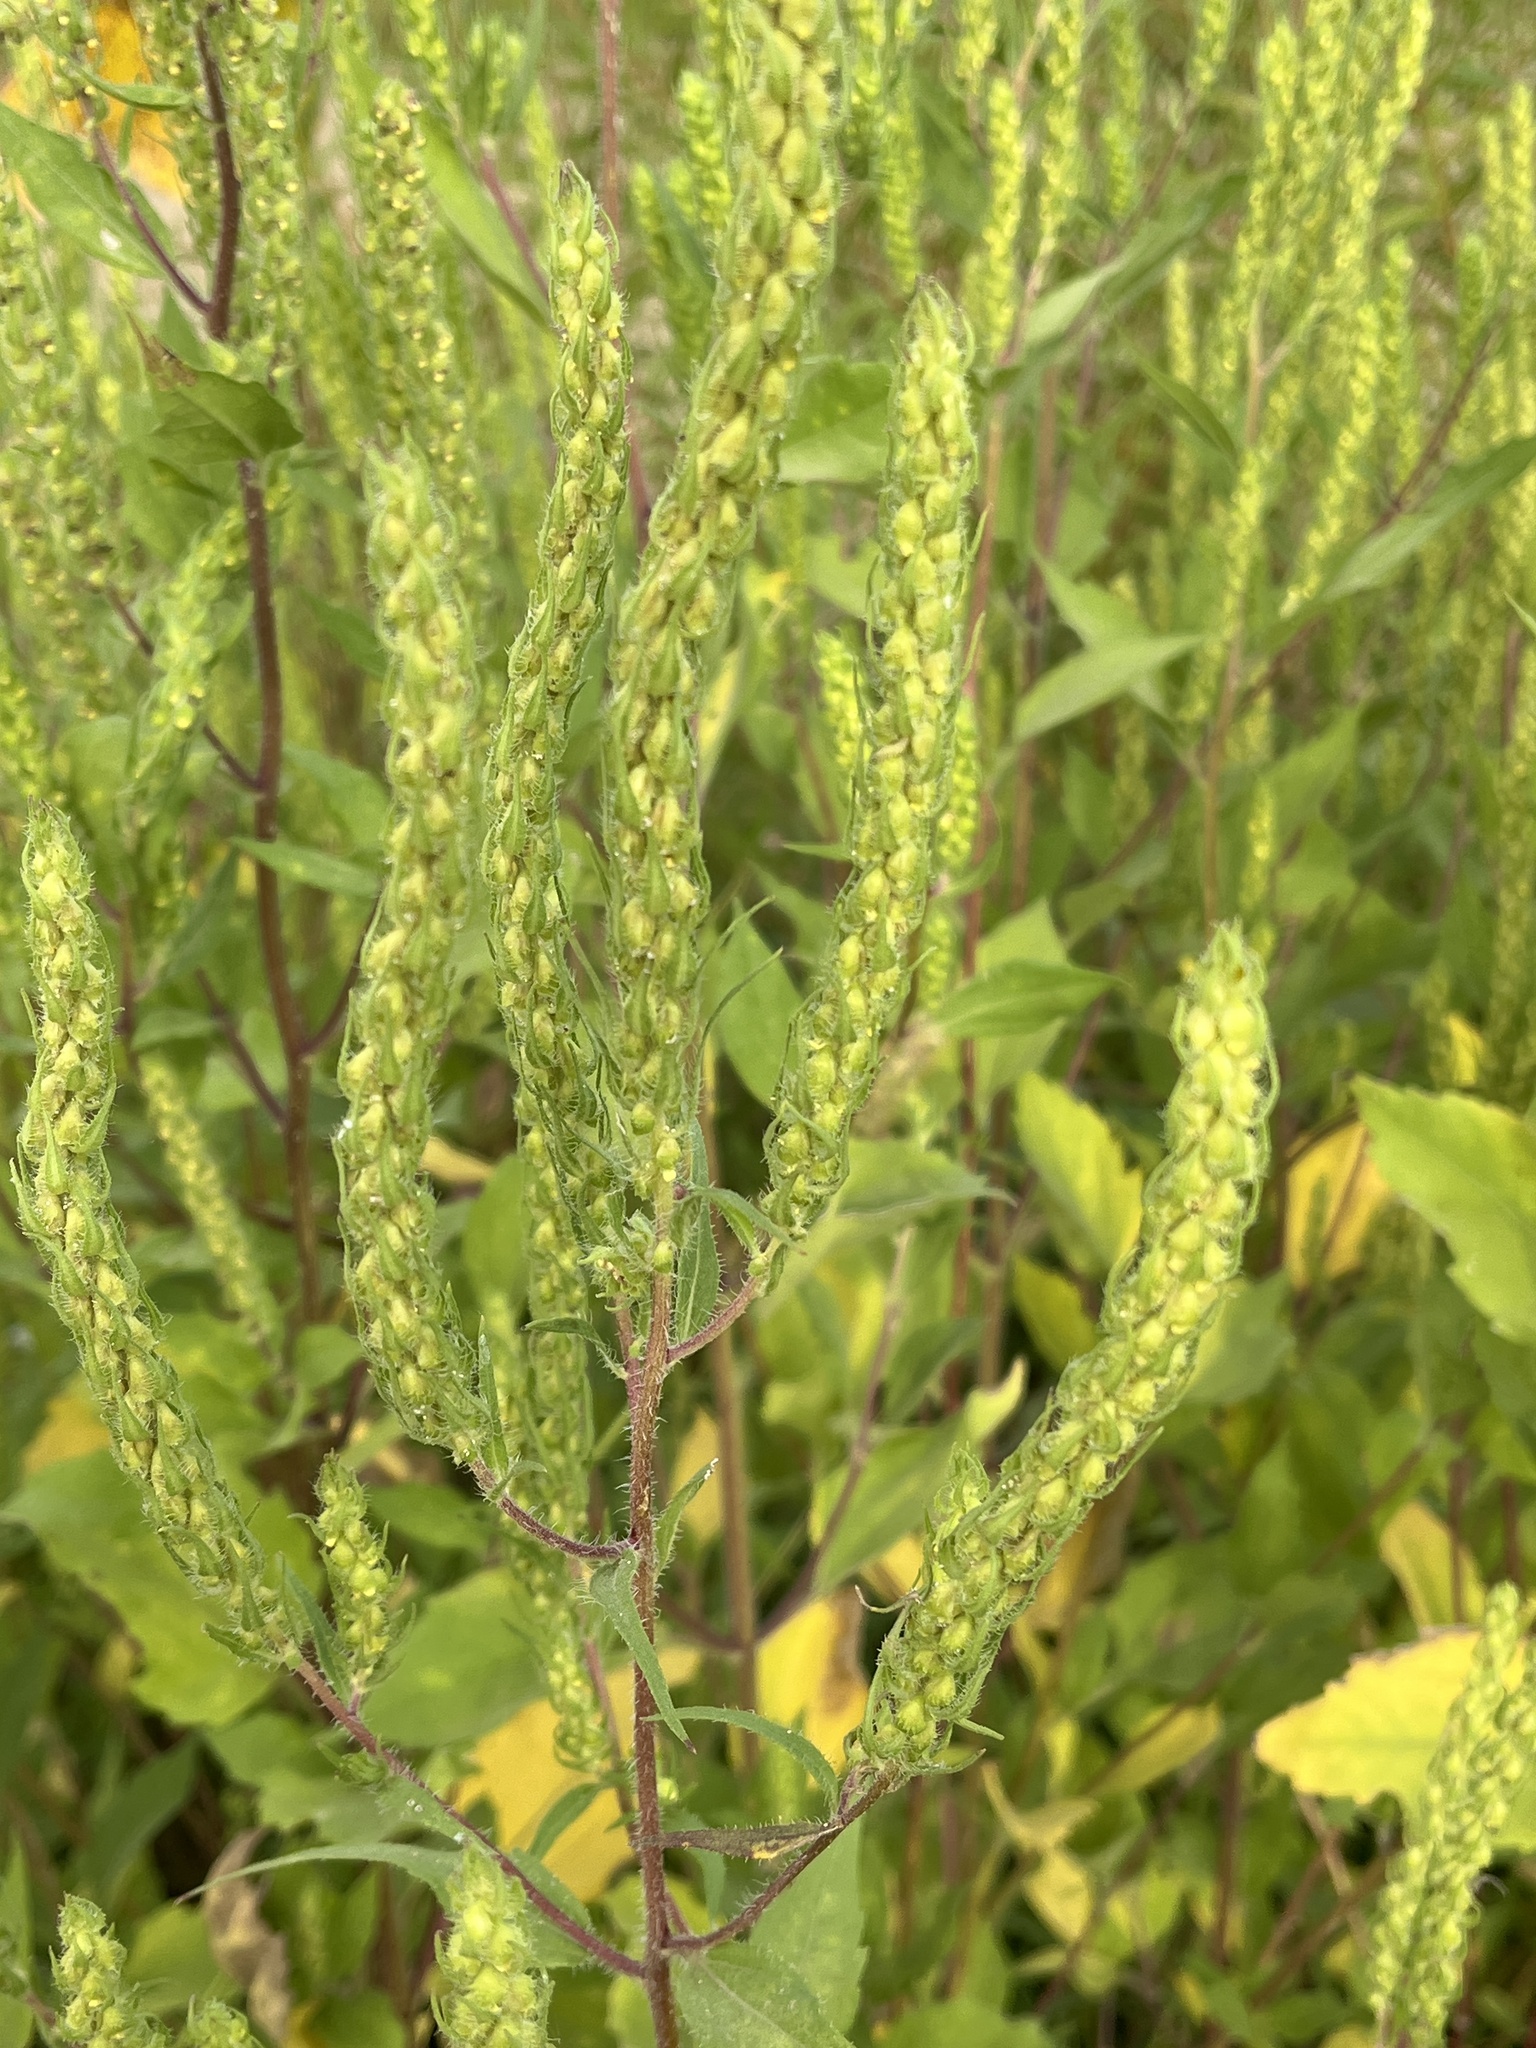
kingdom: Plantae
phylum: Tracheophyta
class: Magnoliopsida
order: Asterales
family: Asteraceae
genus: Iva
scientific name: Iva annua
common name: Marsh-elder
